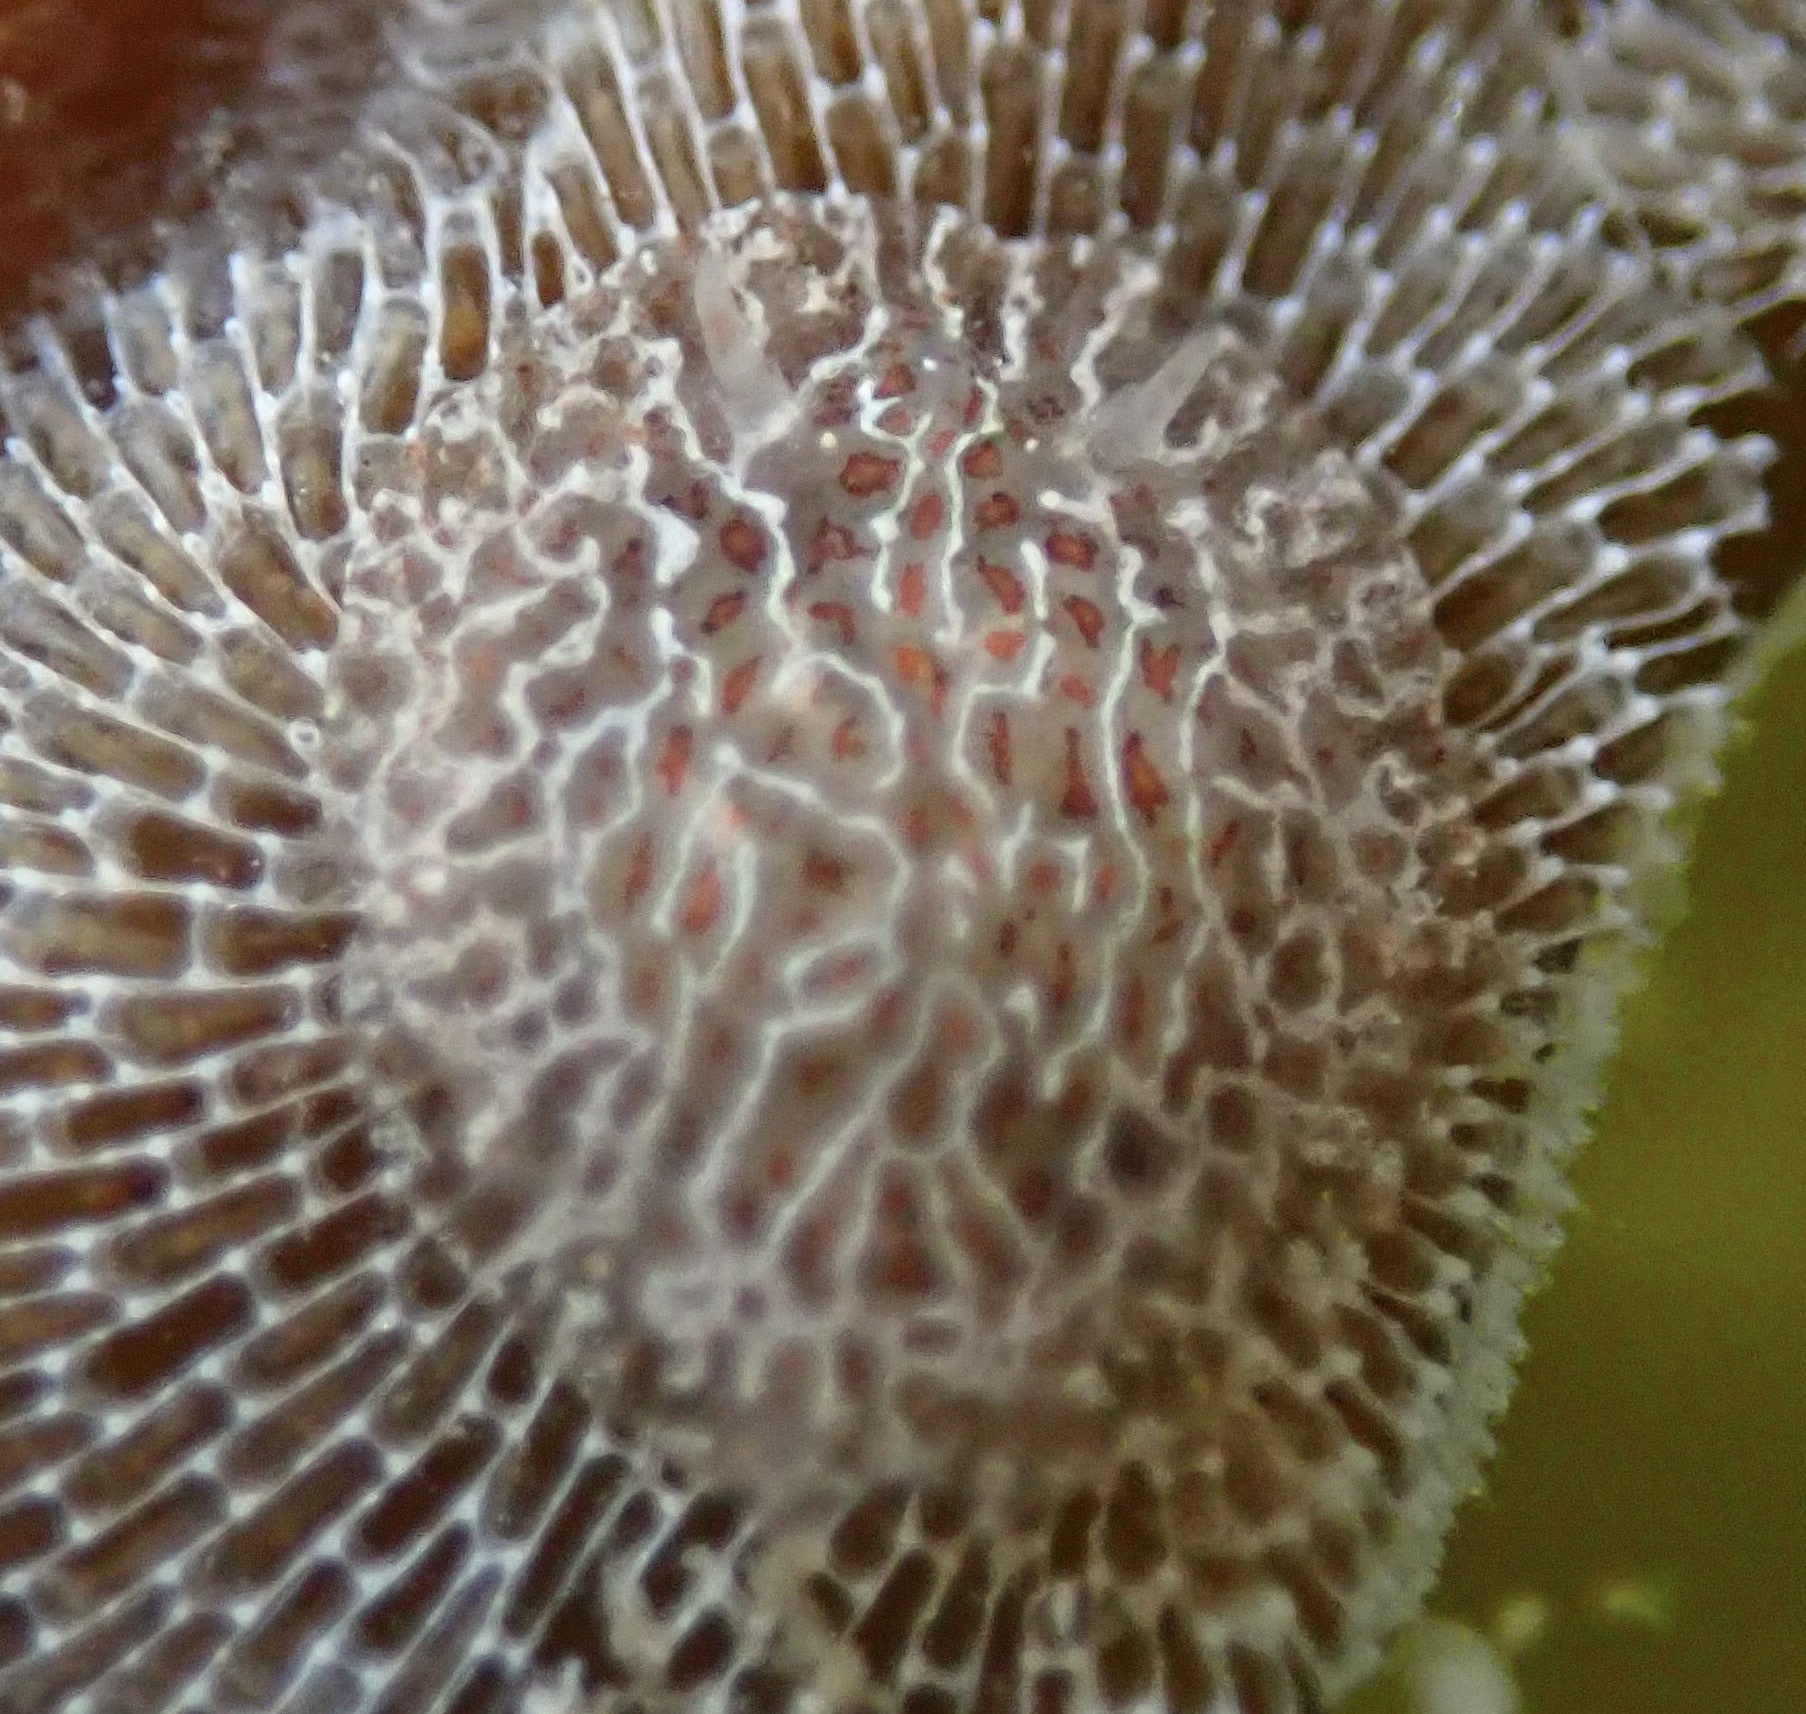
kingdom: Animalia
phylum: Mollusca
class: Gastropoda
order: Nudibranchia
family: Corambidae
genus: Corambe
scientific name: Corambe steinbergae
